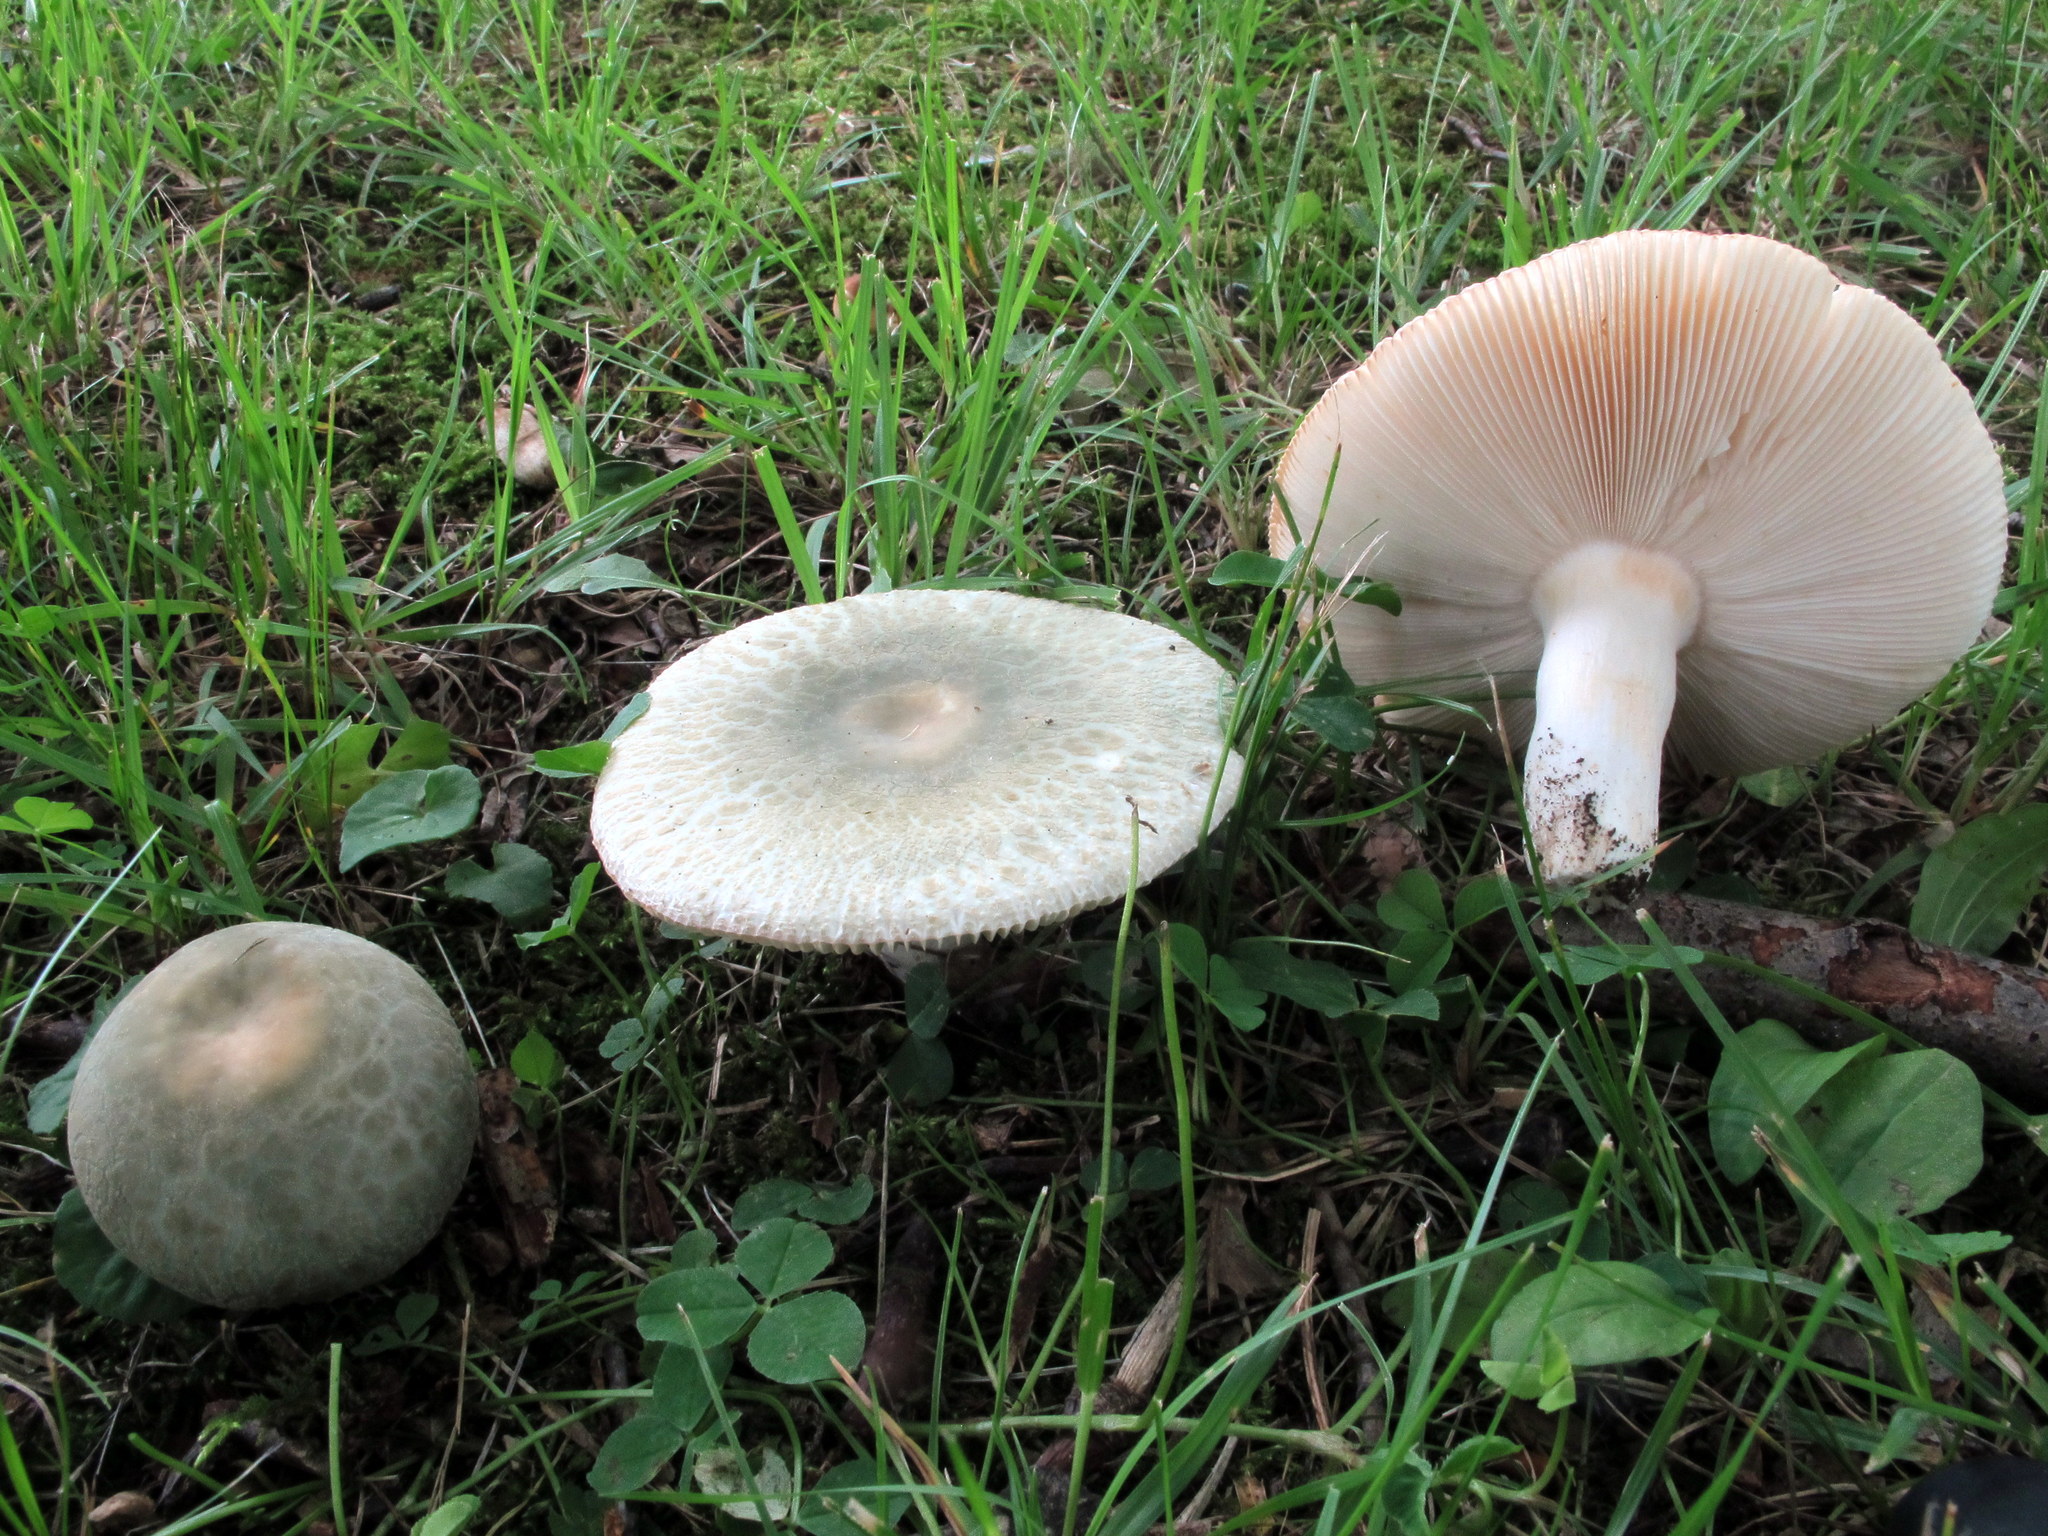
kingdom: Fungi
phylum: Basidiomycota
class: Agaricomycetes
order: Russulales
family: Russulaceae
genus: Russula
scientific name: Russula parvovirescens
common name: Blue-green cracking russula
